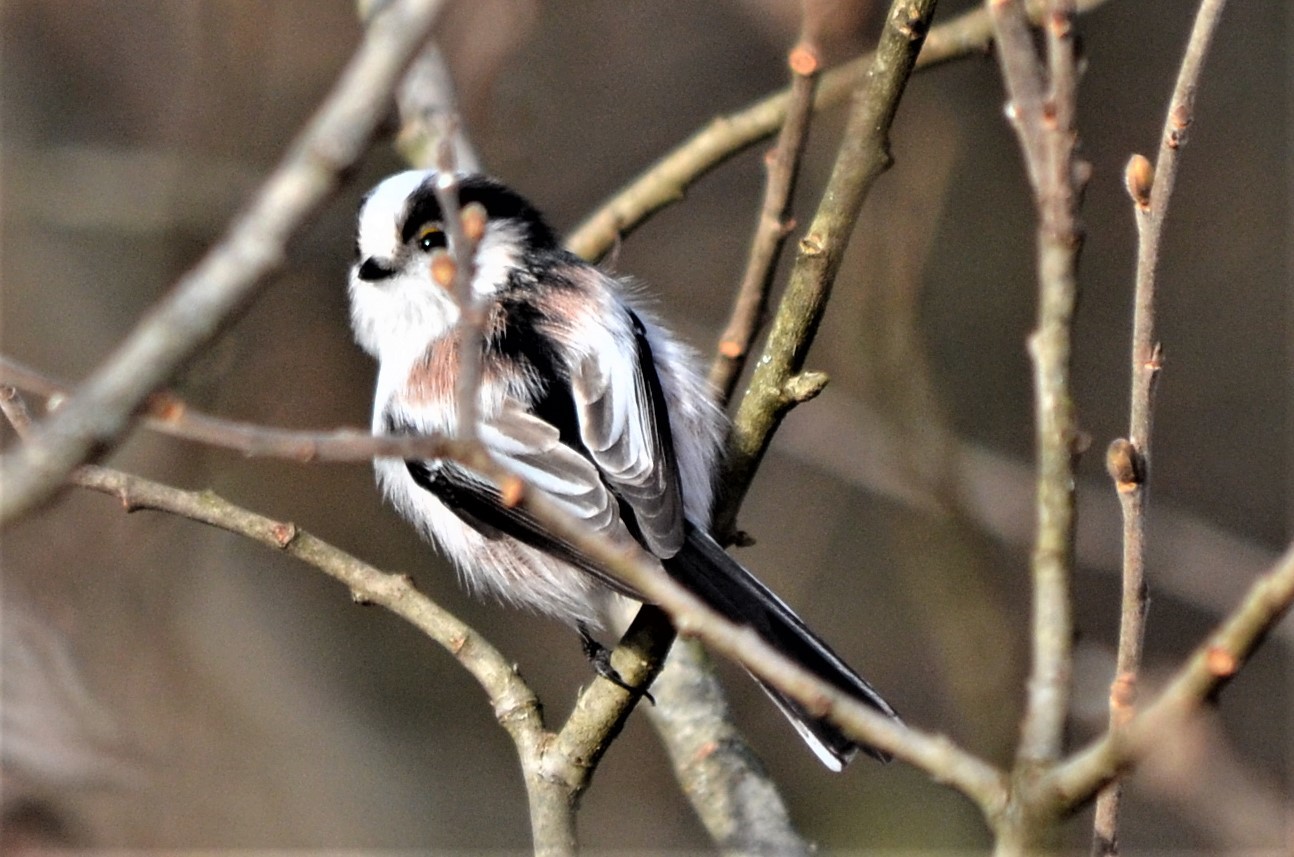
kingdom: Animalia
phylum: Chordata
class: Aves
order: Passeriformes
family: Aegithalidae
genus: Aegithalos
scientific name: Aegithalos caudatus
